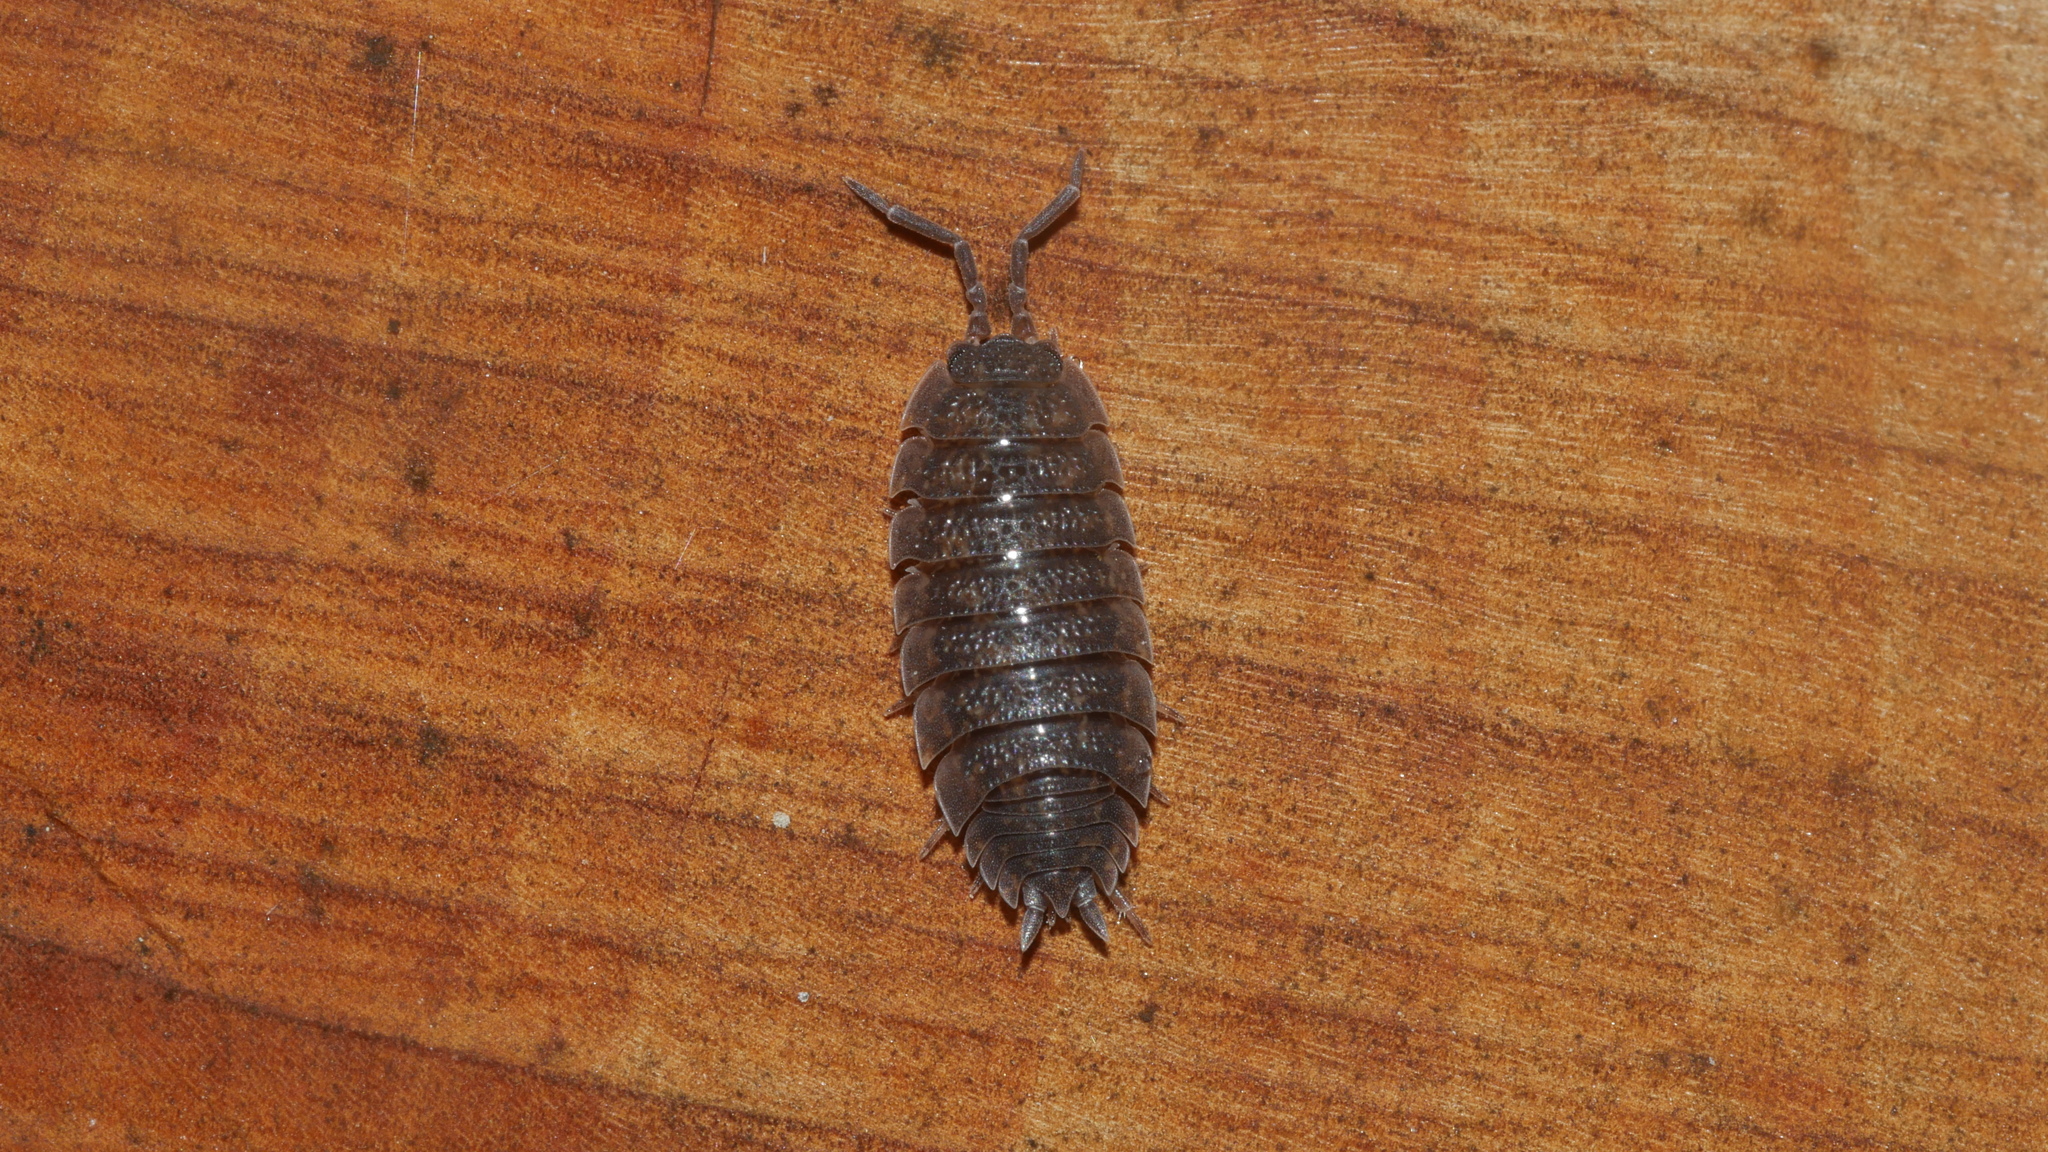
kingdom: Animalia
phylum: Arthropoda
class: Malacostraca
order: Isopoda
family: Porcellionidae
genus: Porcellio
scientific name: Porcellio scaber
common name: Common rough woodlouse
